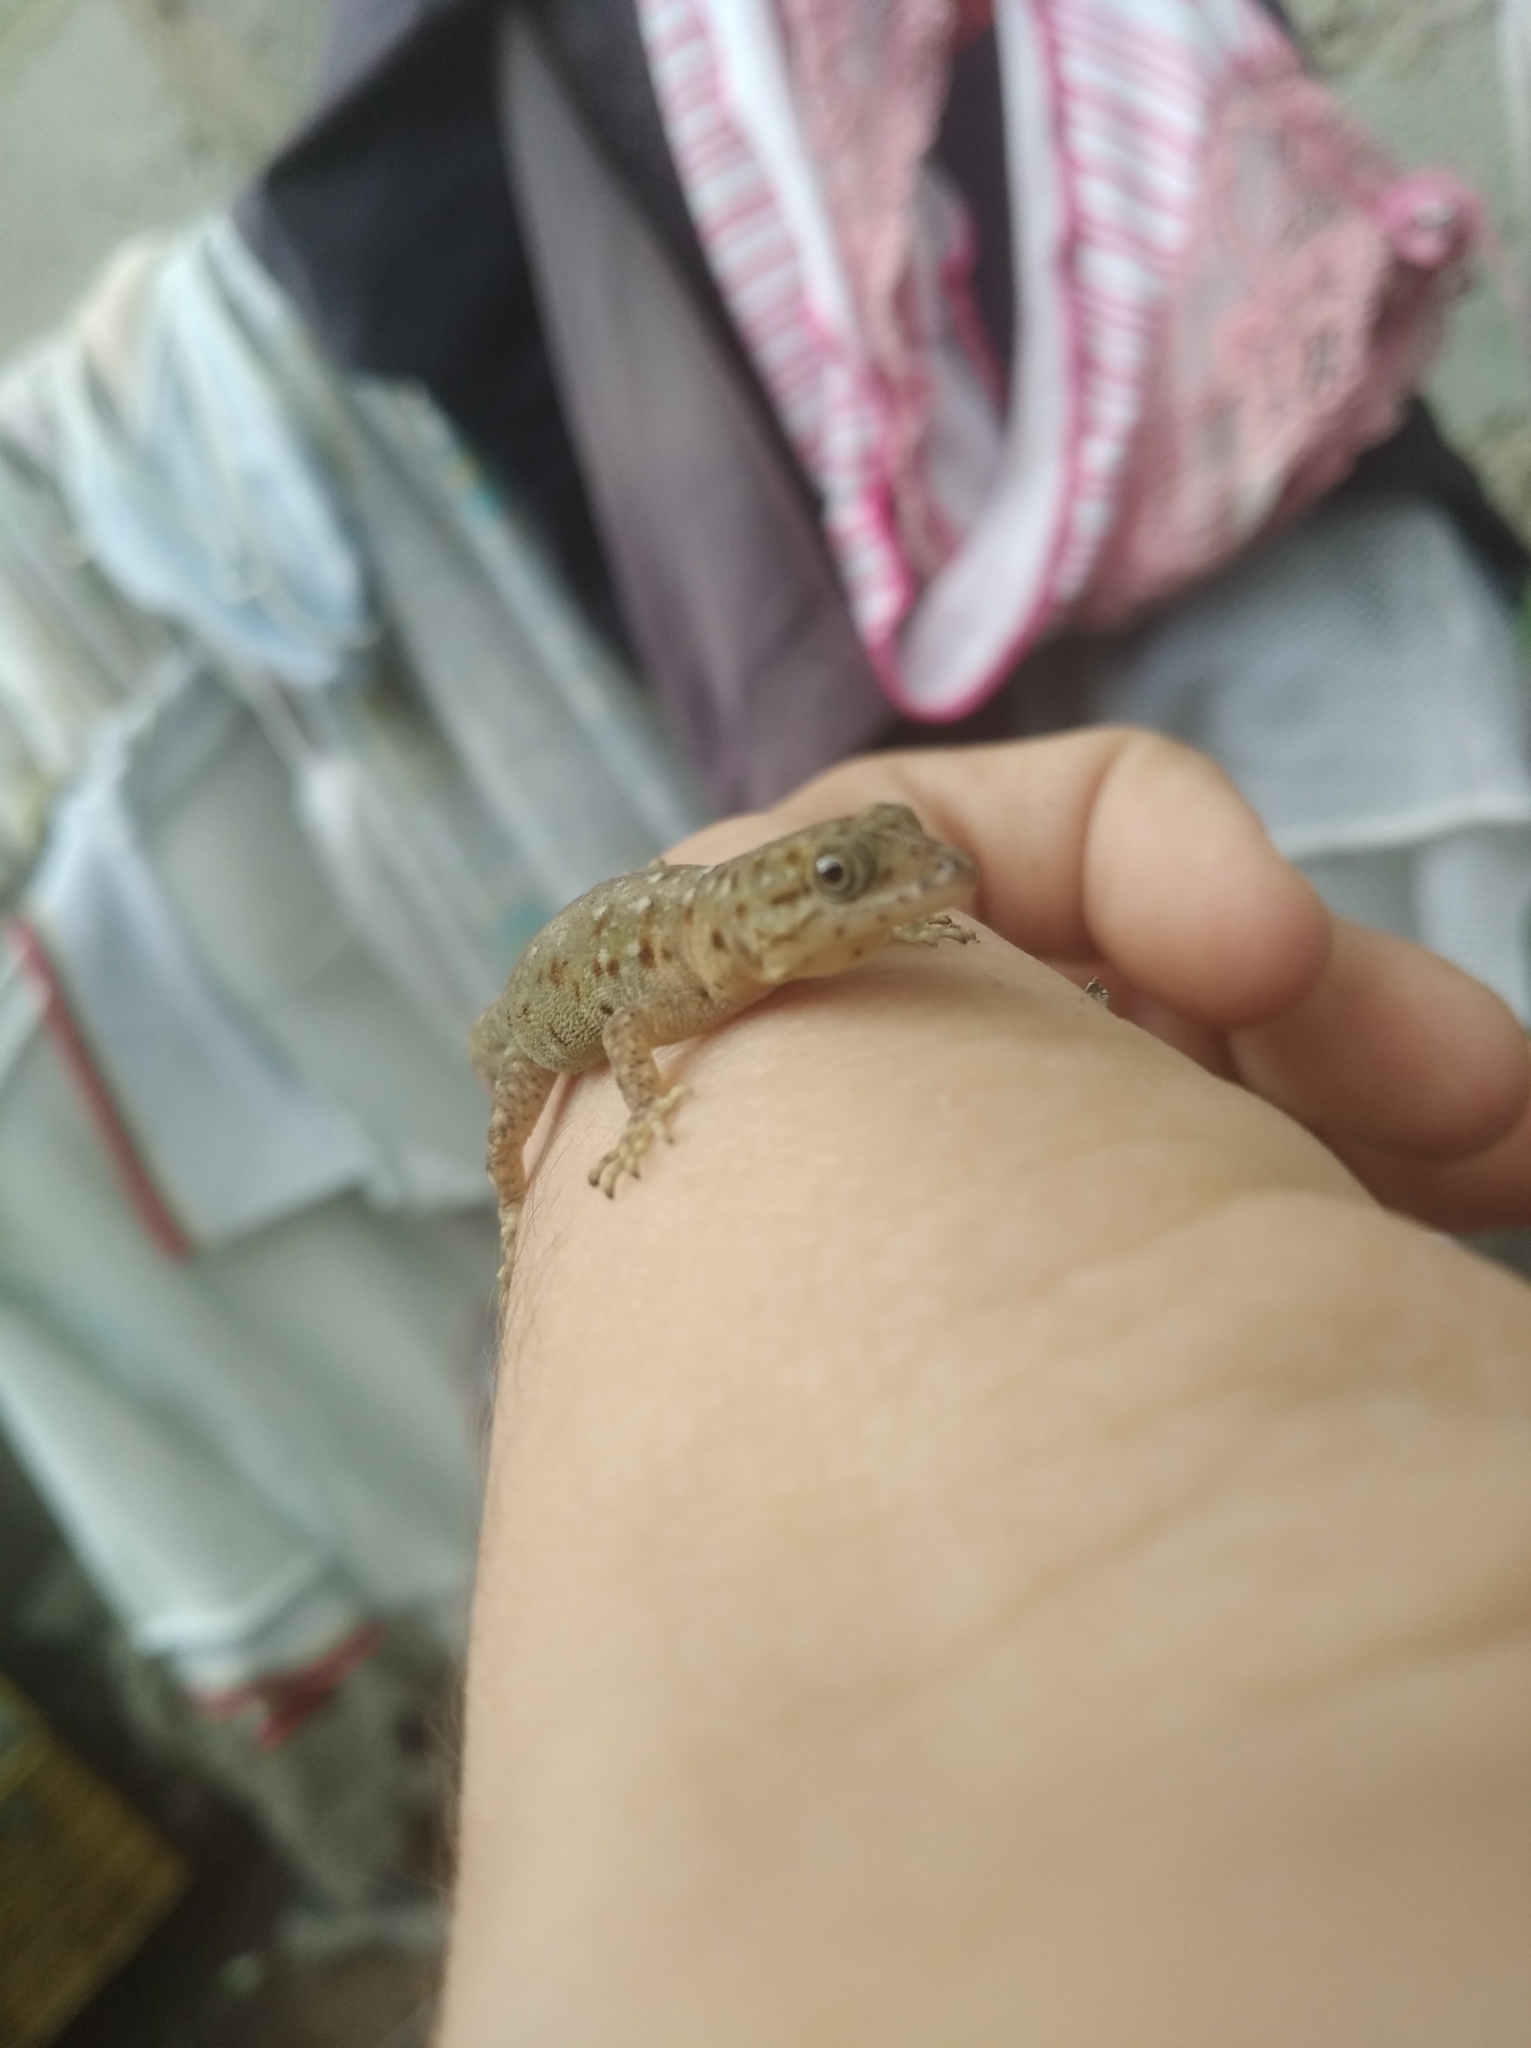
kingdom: Animalia
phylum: Chordata
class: Squamata
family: Sphaerodactylidae
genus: Gonatodes
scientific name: Gonatodes vittatus
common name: Wiegmann's striped gecko
